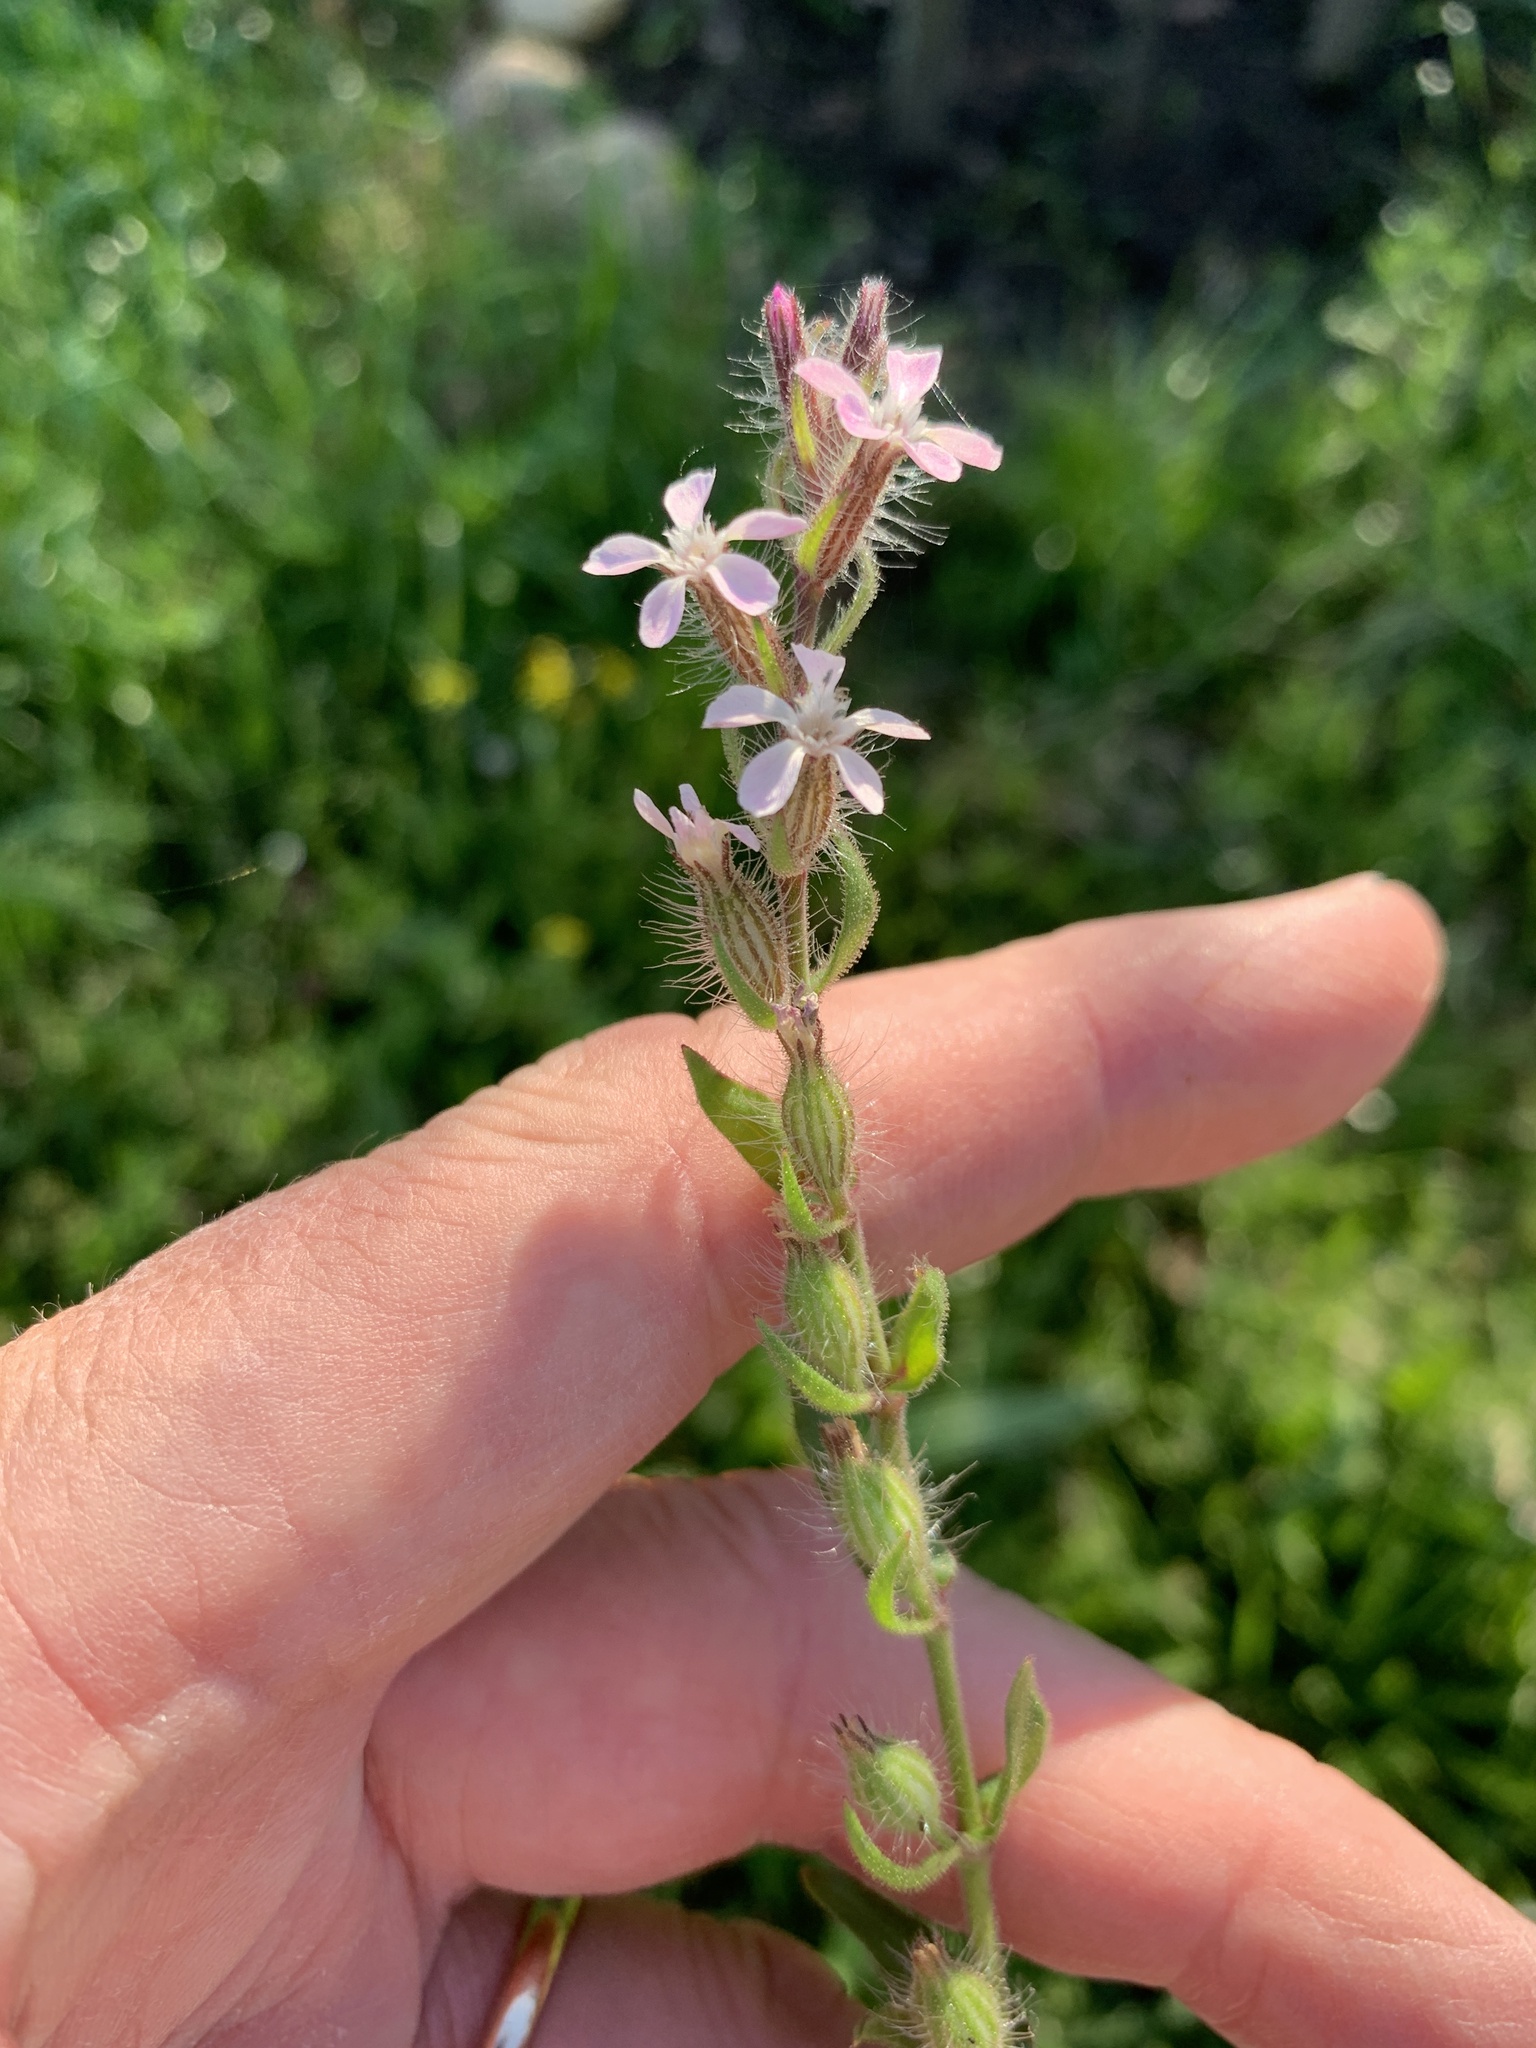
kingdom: Plantae
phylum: Tracheophyta
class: Magnoliopsida
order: Caryophyllales
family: Caryophyllaceae
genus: Silene
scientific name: Silene gallica
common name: Small-flowered catchfly
